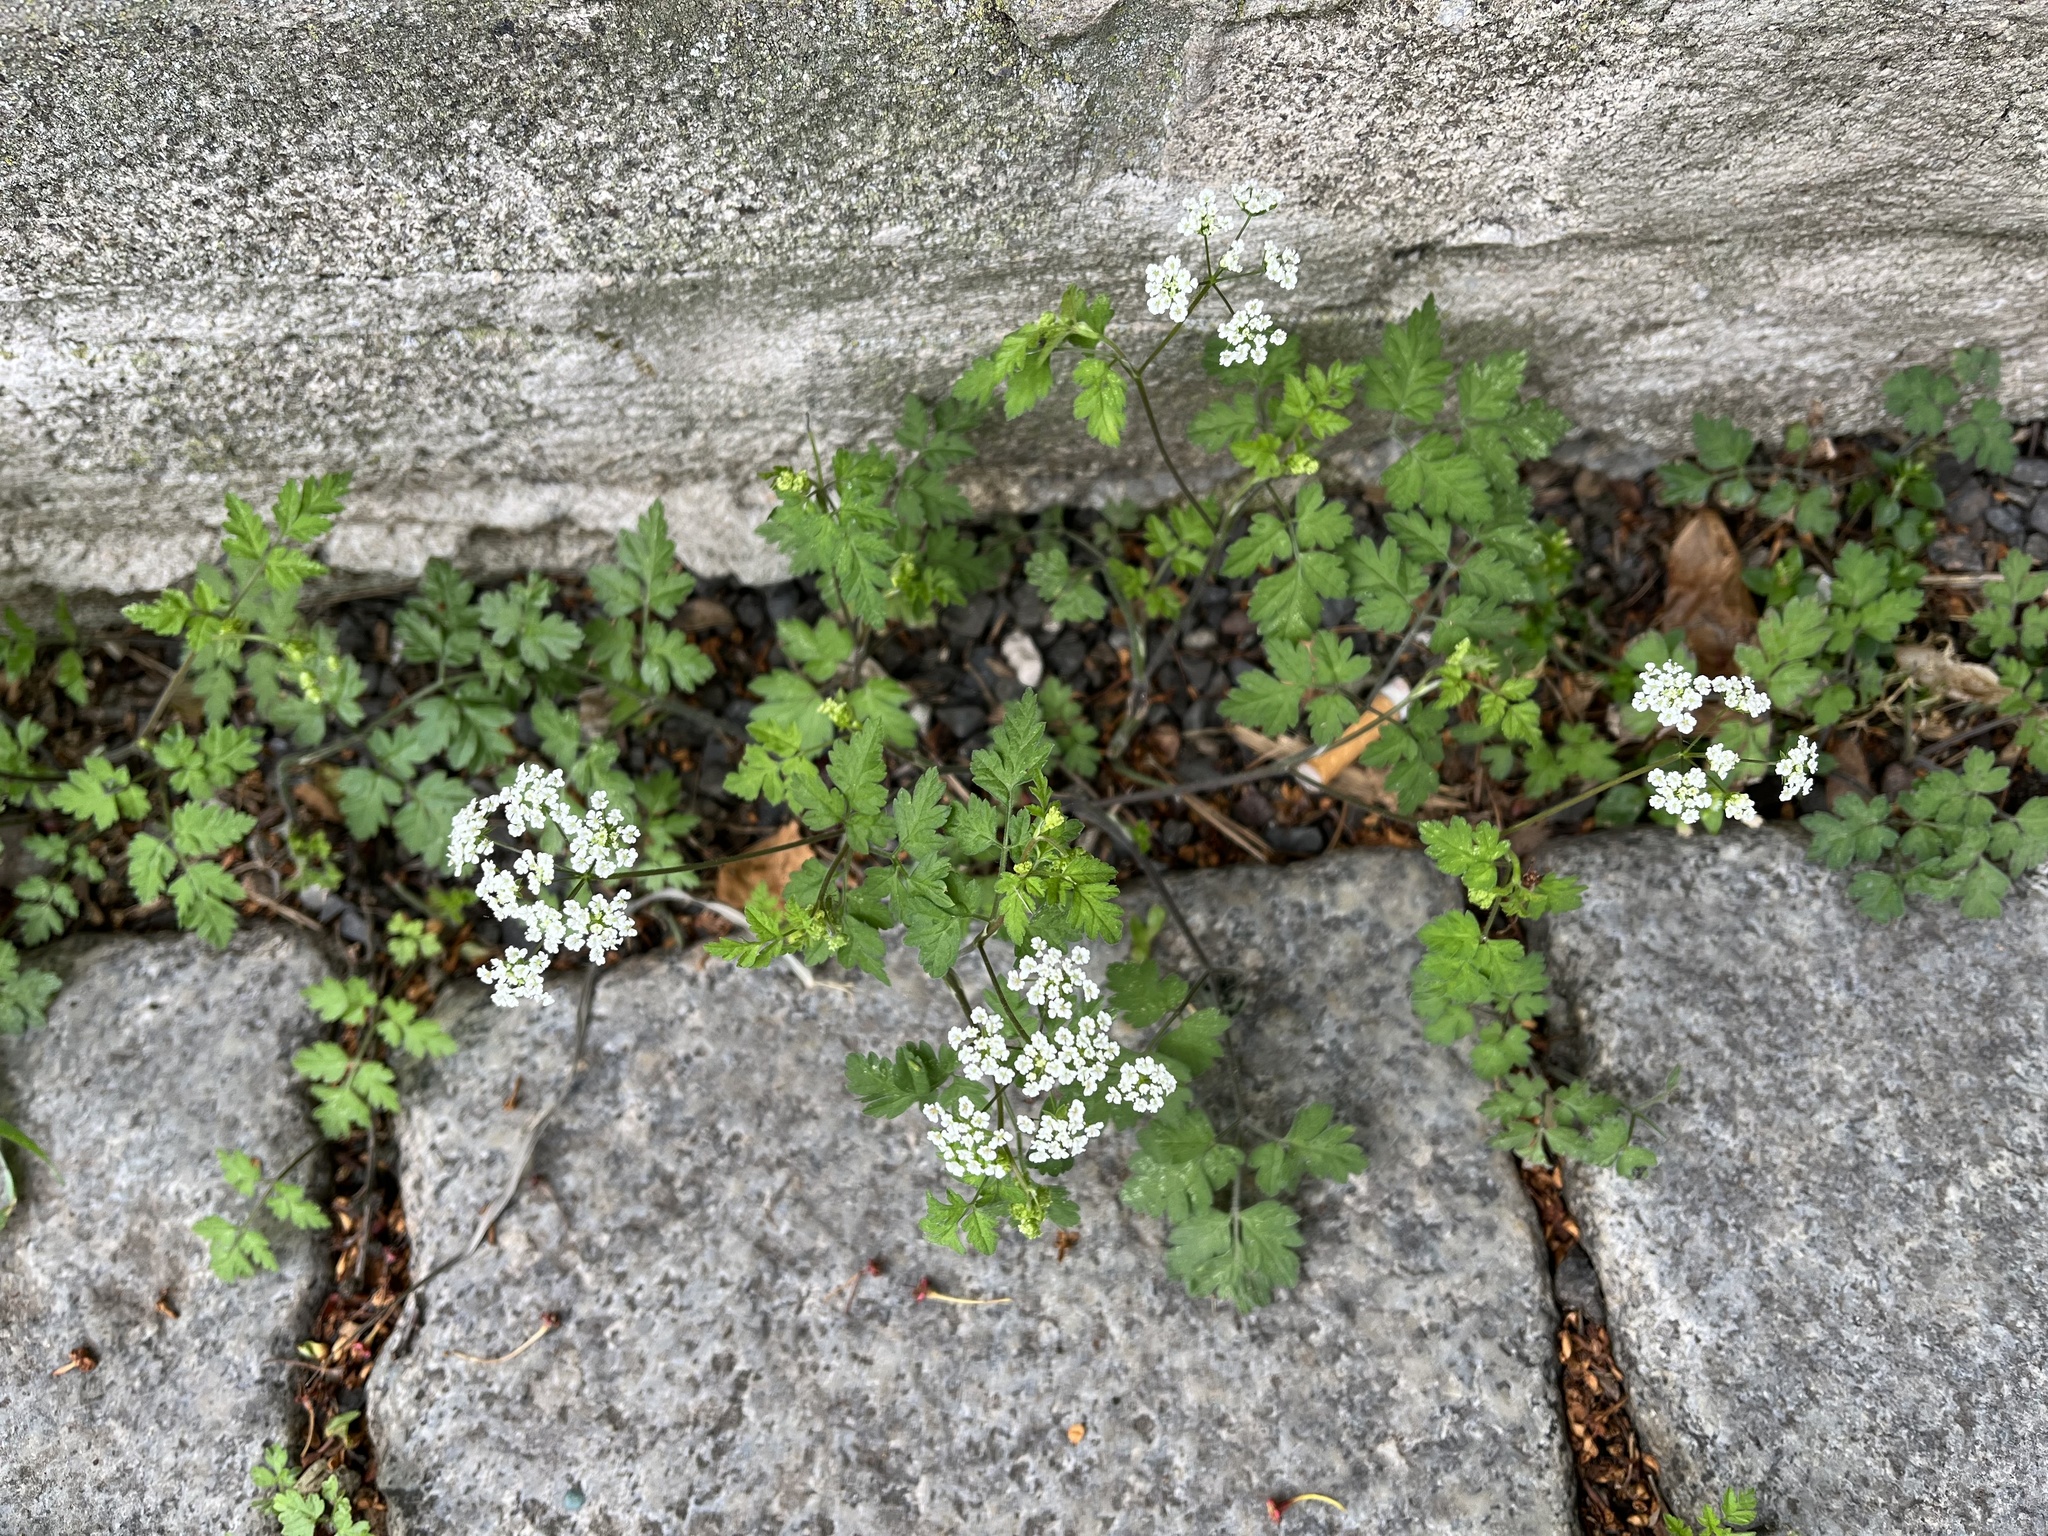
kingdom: Plantae
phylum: Tracheophyta
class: Magnoliopsida
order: Apiales
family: Apiaceae
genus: Chaerophyllum
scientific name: Chaerophyllum temulum
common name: Rough chervil
